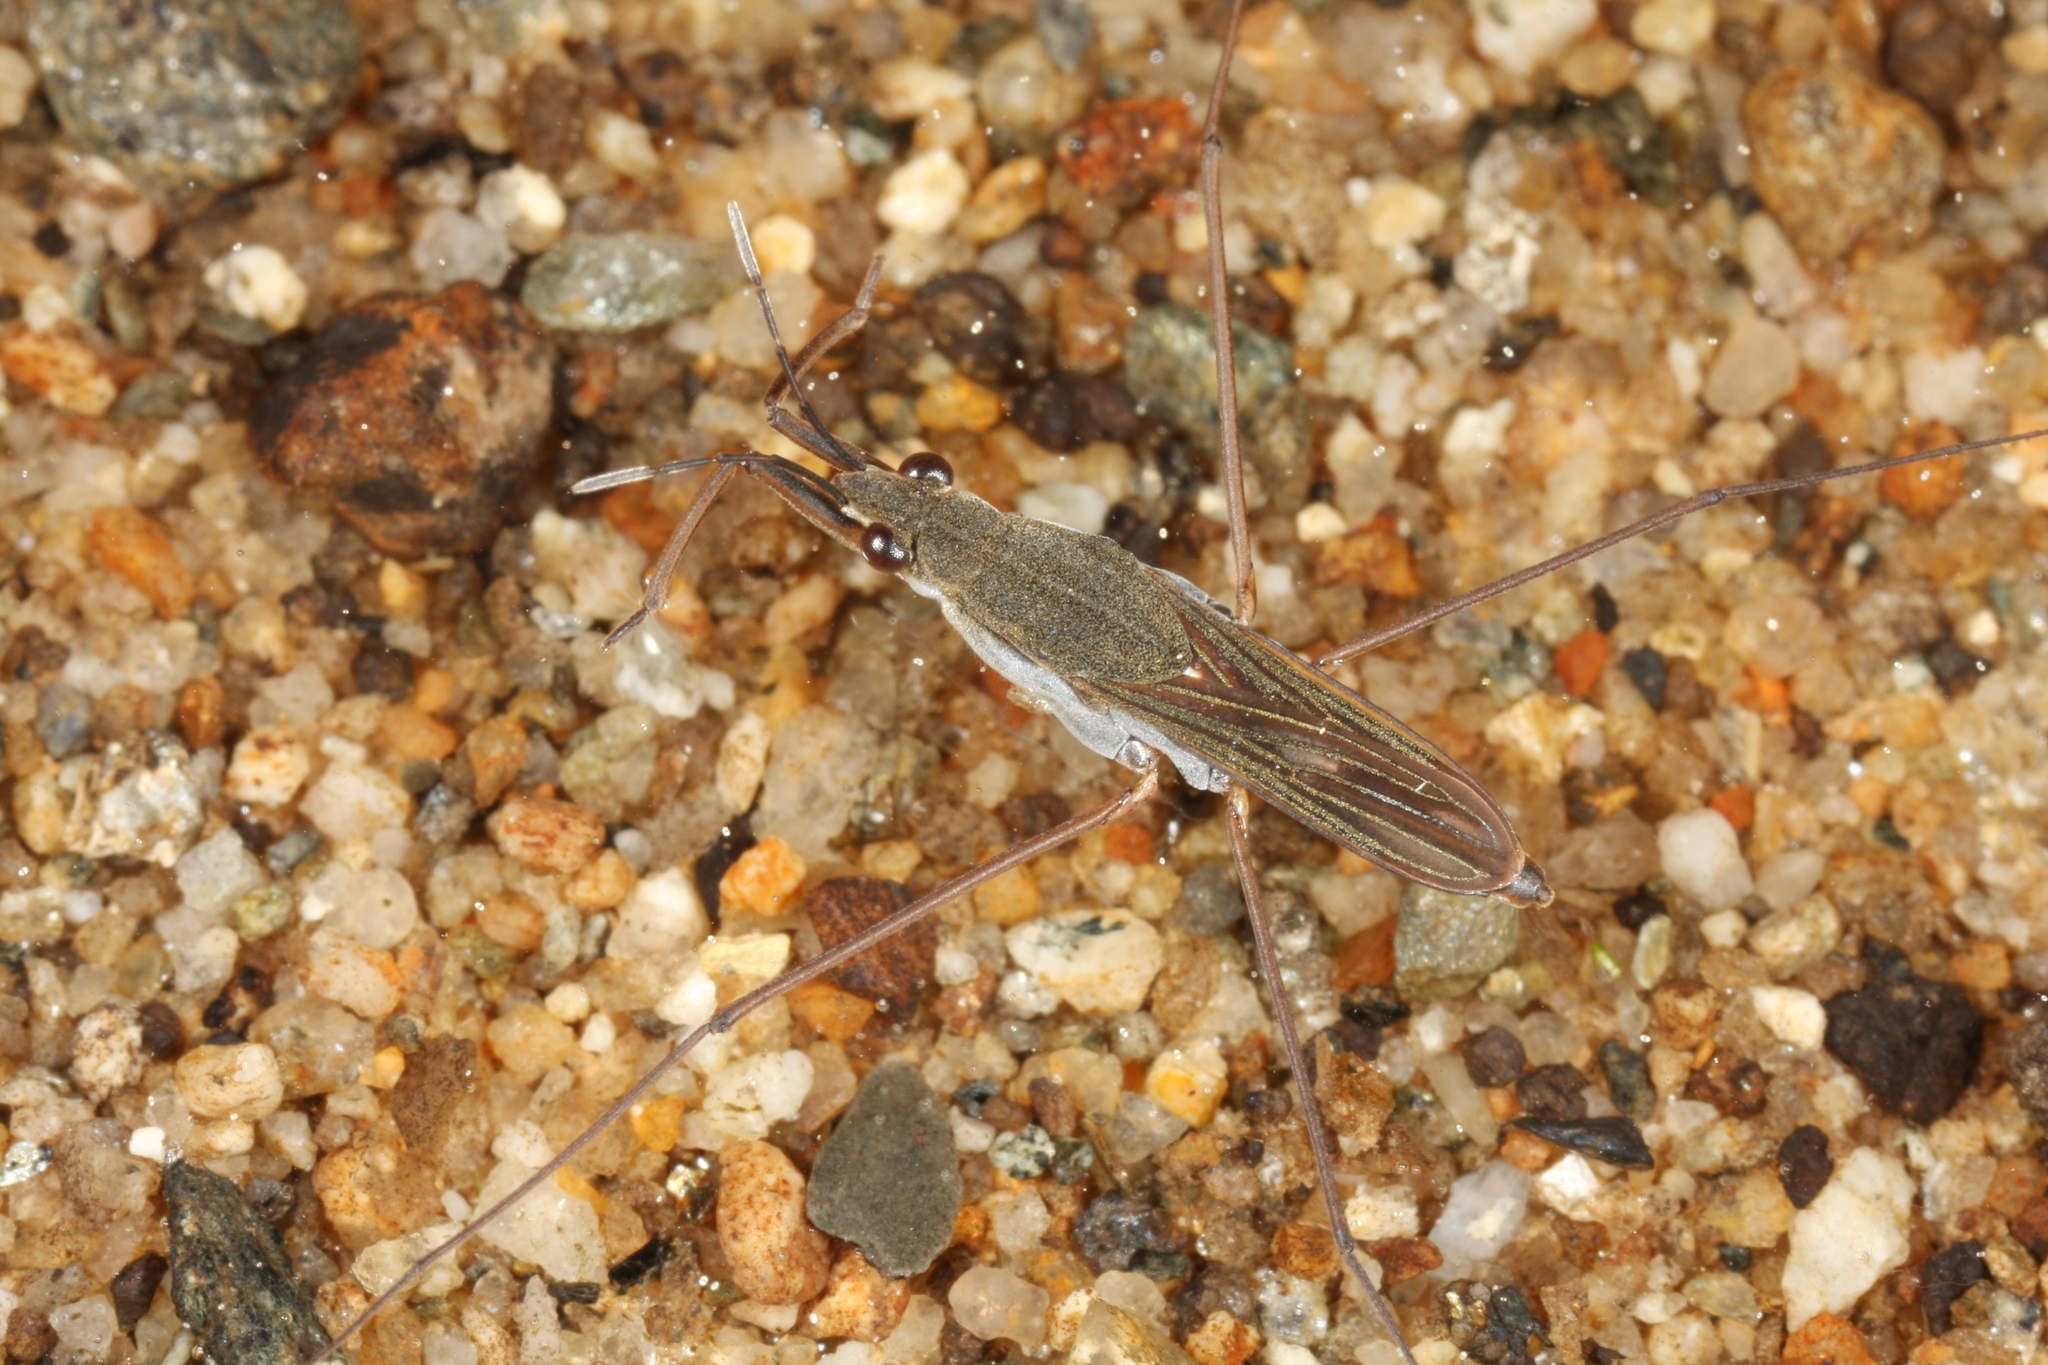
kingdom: Animalia
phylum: Arthropoda
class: Insecta
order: Hemiptera
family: Gerridae
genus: Gerris
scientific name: Gerris lacustris
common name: Common pondskater
